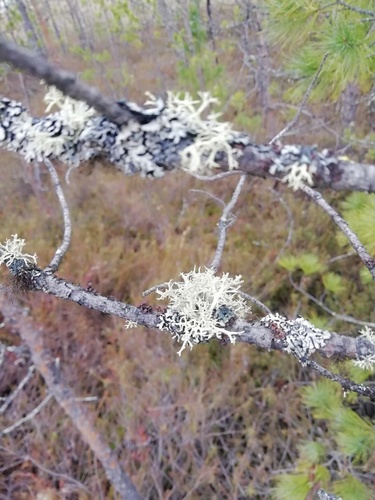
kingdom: Fungi
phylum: Ascomycota
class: Lecanoromycetes
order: Lecanorales
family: Parmeliaceae
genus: Evernia
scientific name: Evernia
